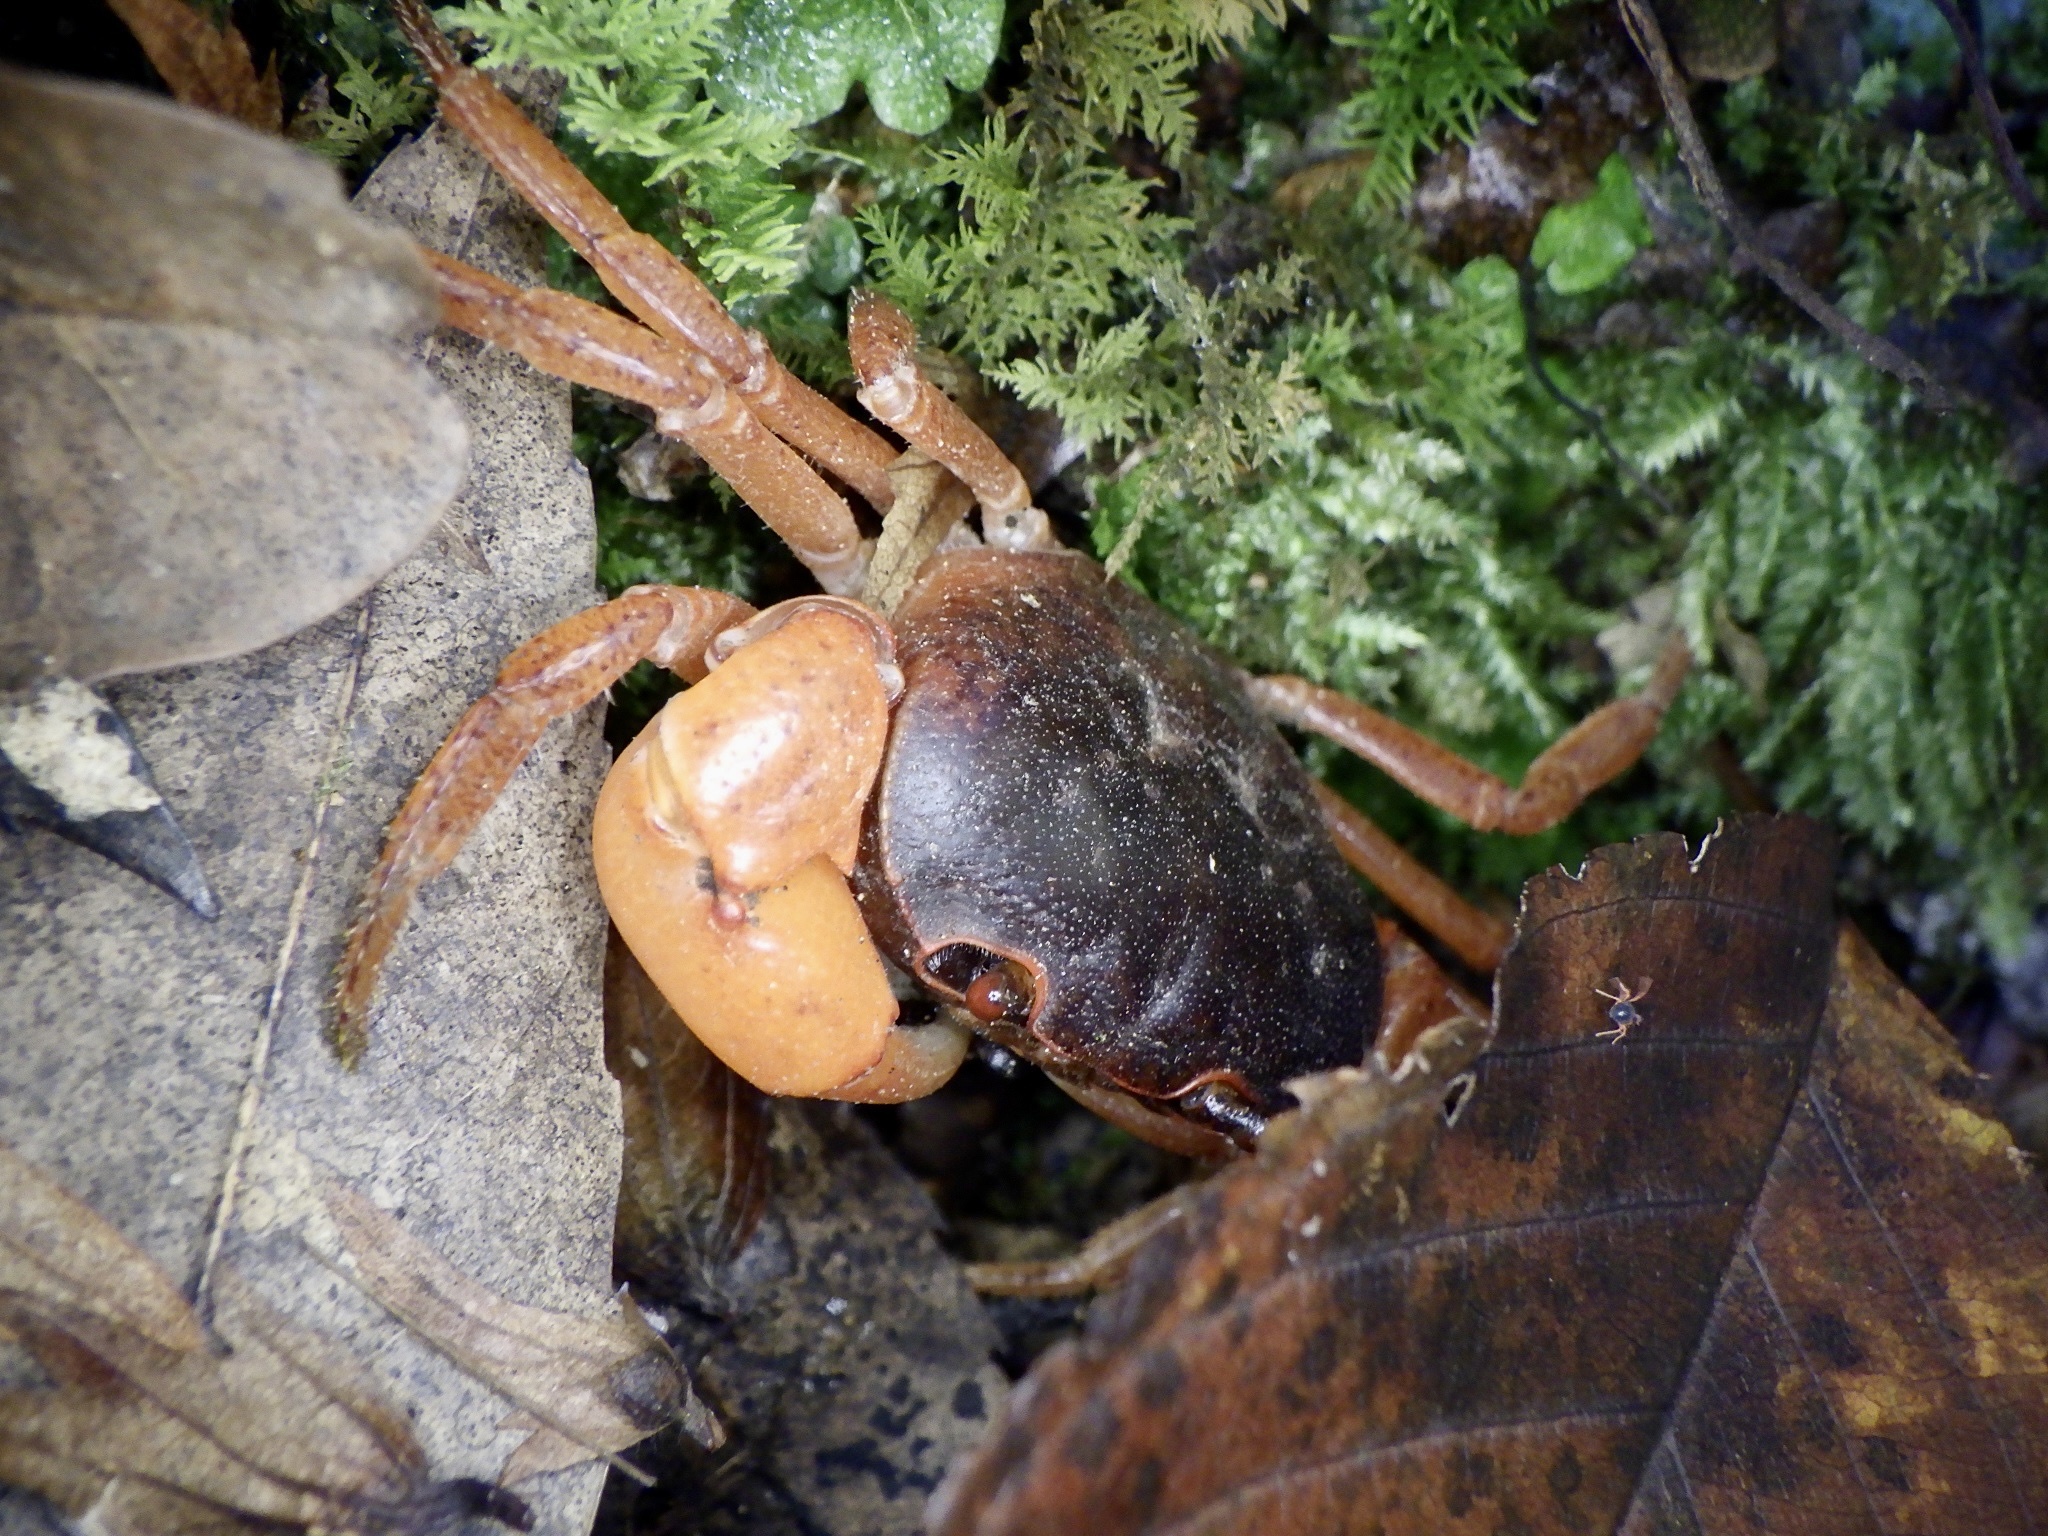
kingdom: Animalia
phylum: Arthropoda
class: Malacostraca
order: Decapoda
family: Potamidae
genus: Geothelphusa
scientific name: Geothelphusa dehaani
